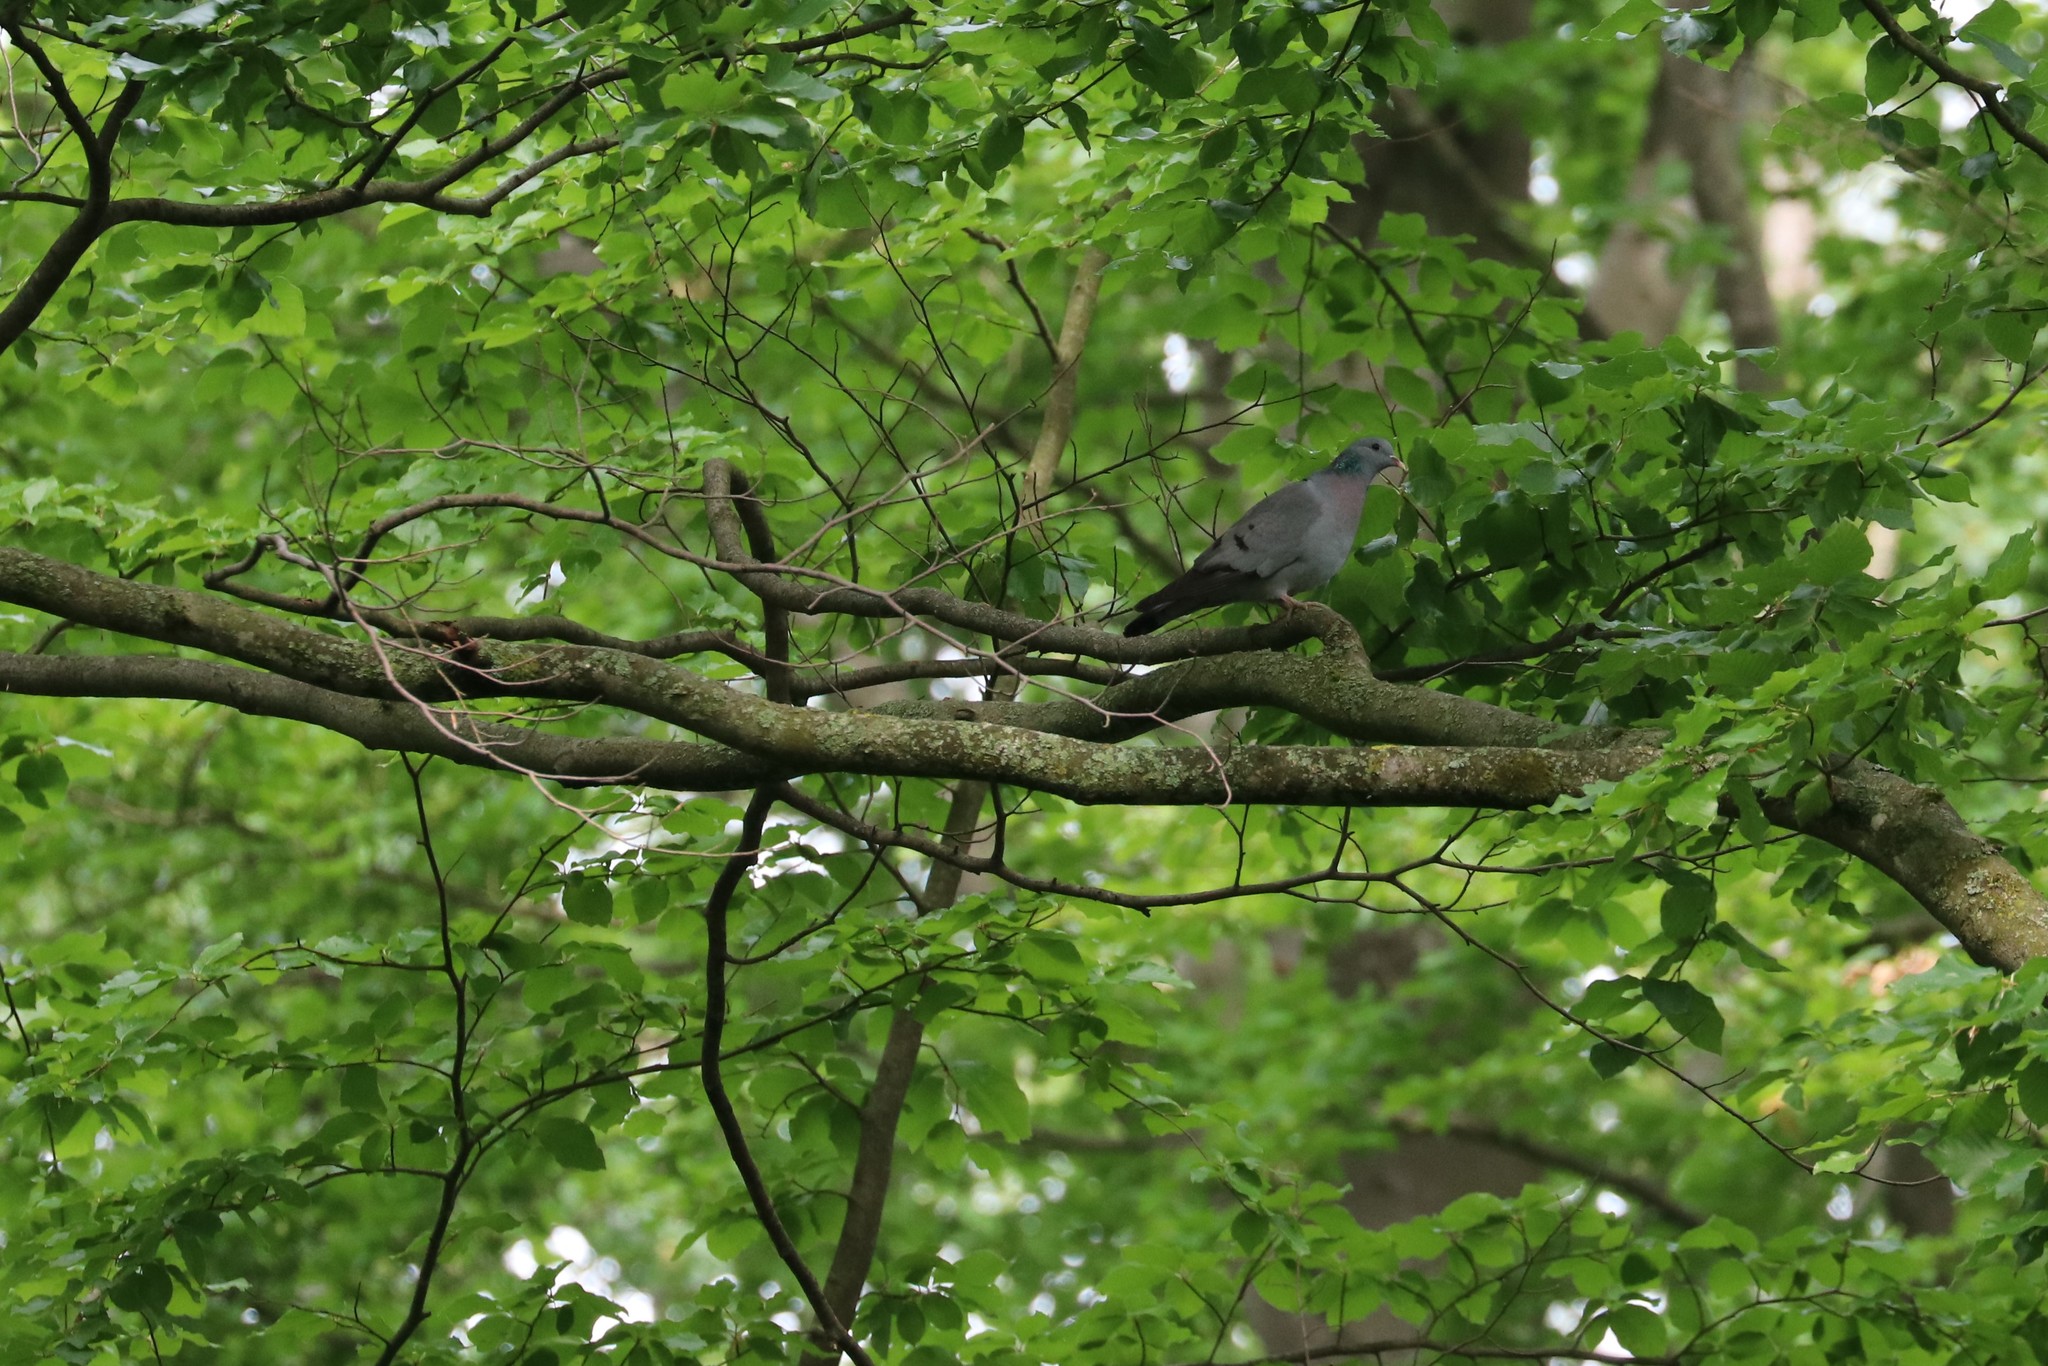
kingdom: Animalia
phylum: Chordata
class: Aves
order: Columbiformes
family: Columbidae
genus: Columba
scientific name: Columba oenas
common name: Stock dove
